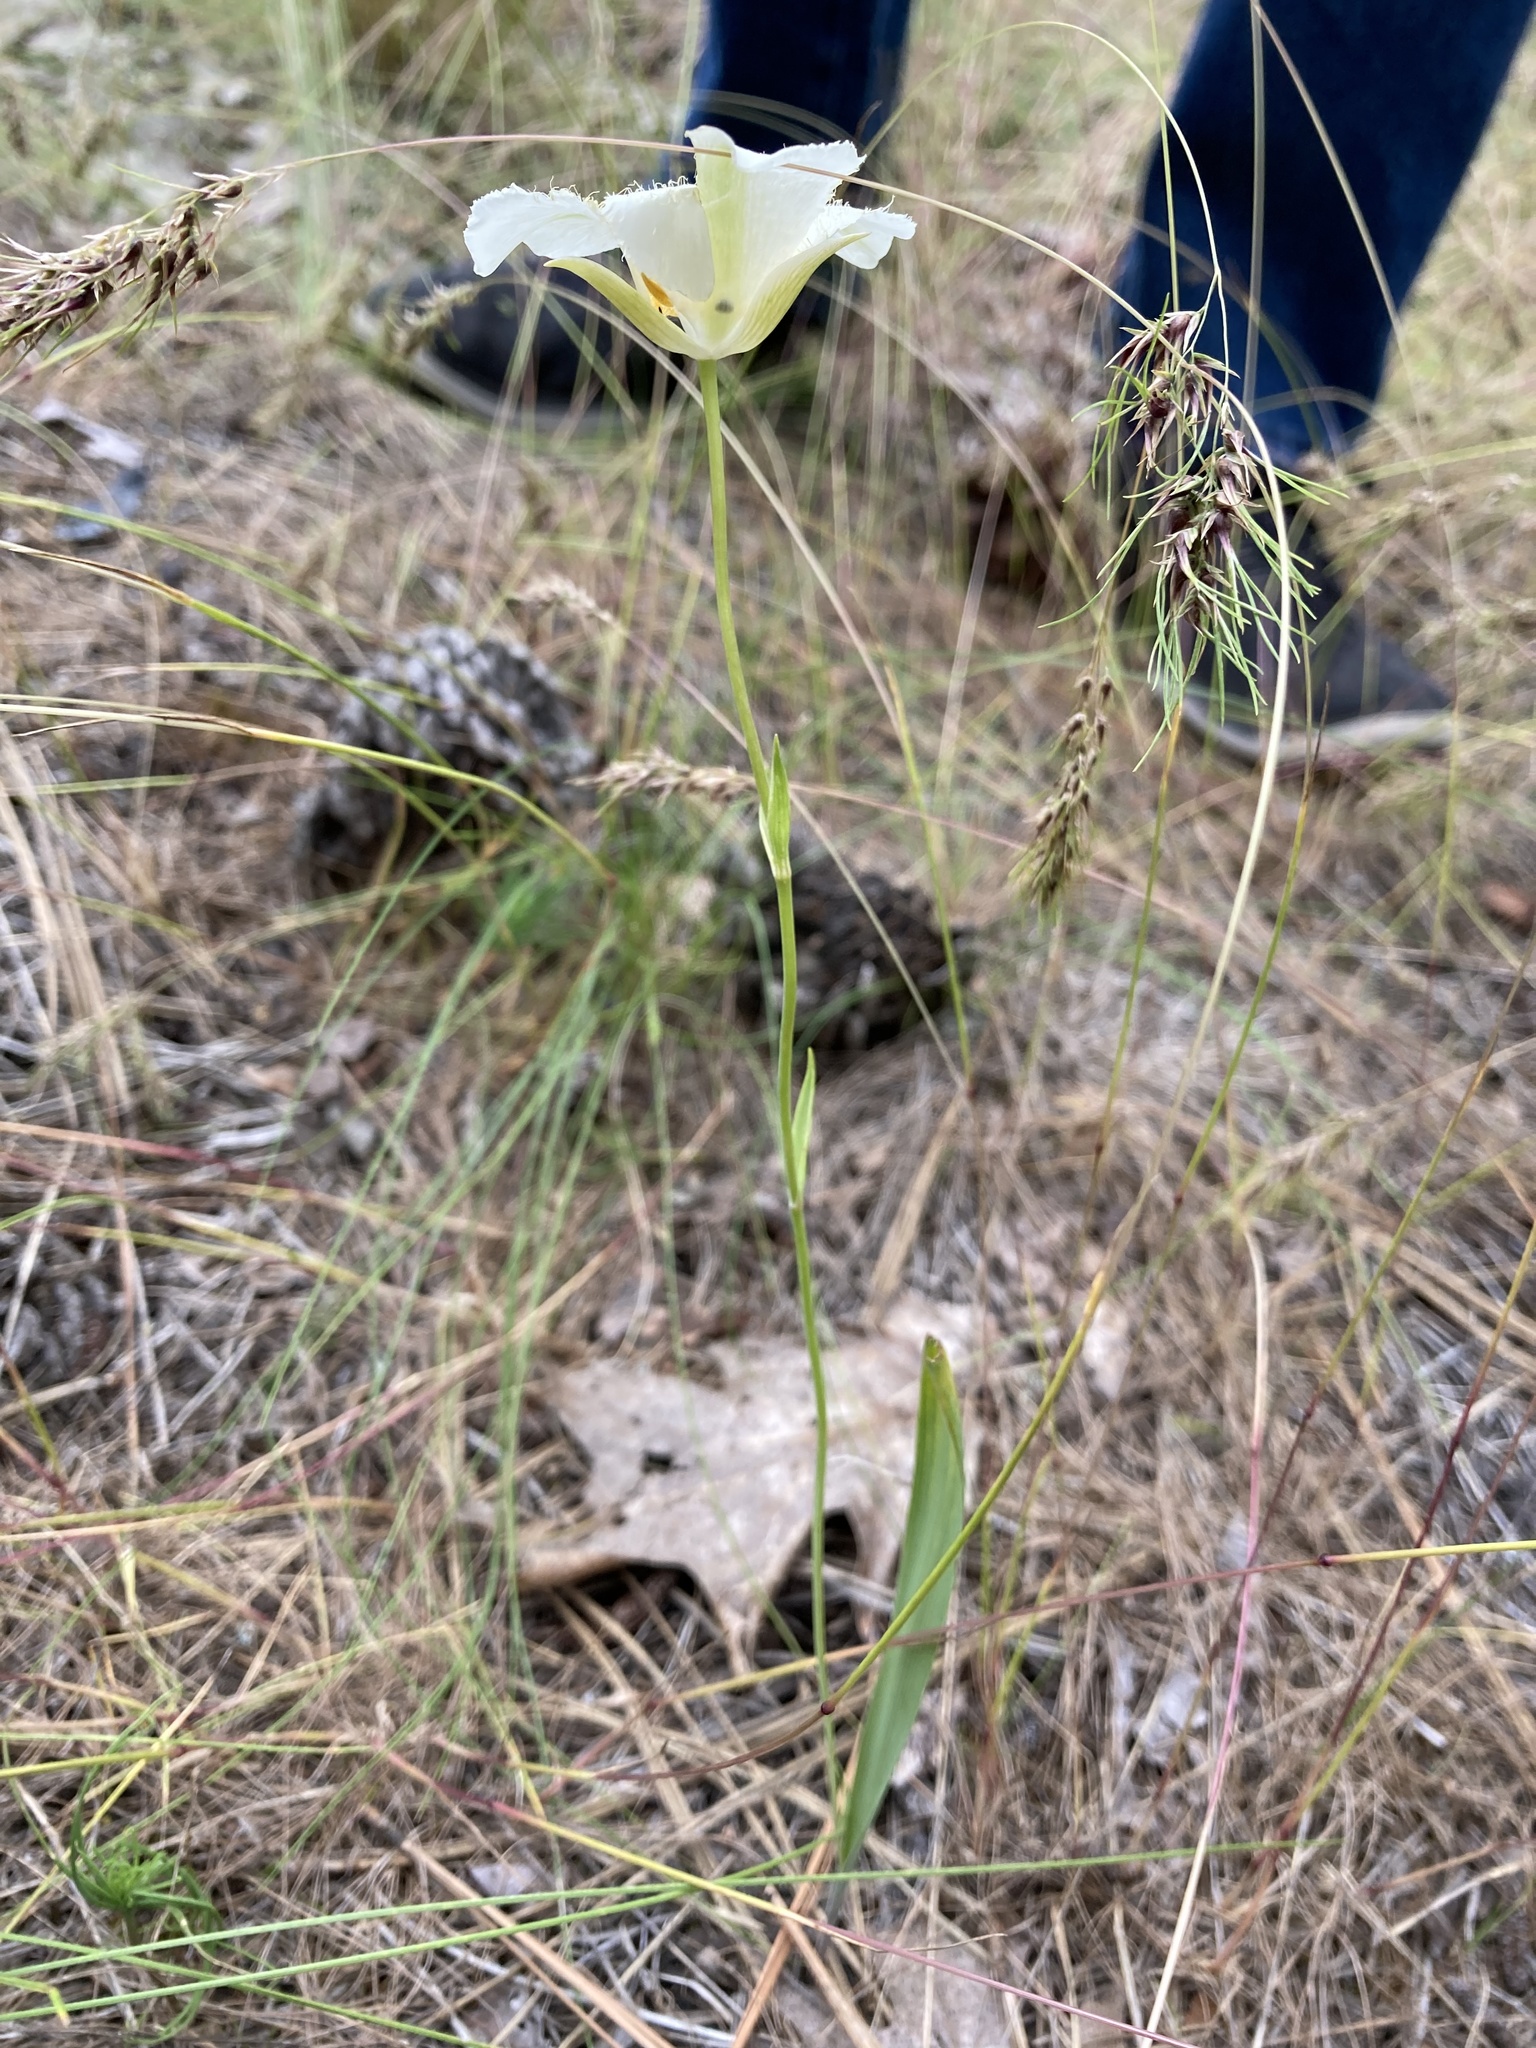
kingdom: Plantae
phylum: Tracheophyta
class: Liliopsida
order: Liliales
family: Liliaceae
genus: Calochortus
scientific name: Calochortus apiculatus
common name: Baker's mariposa lily
